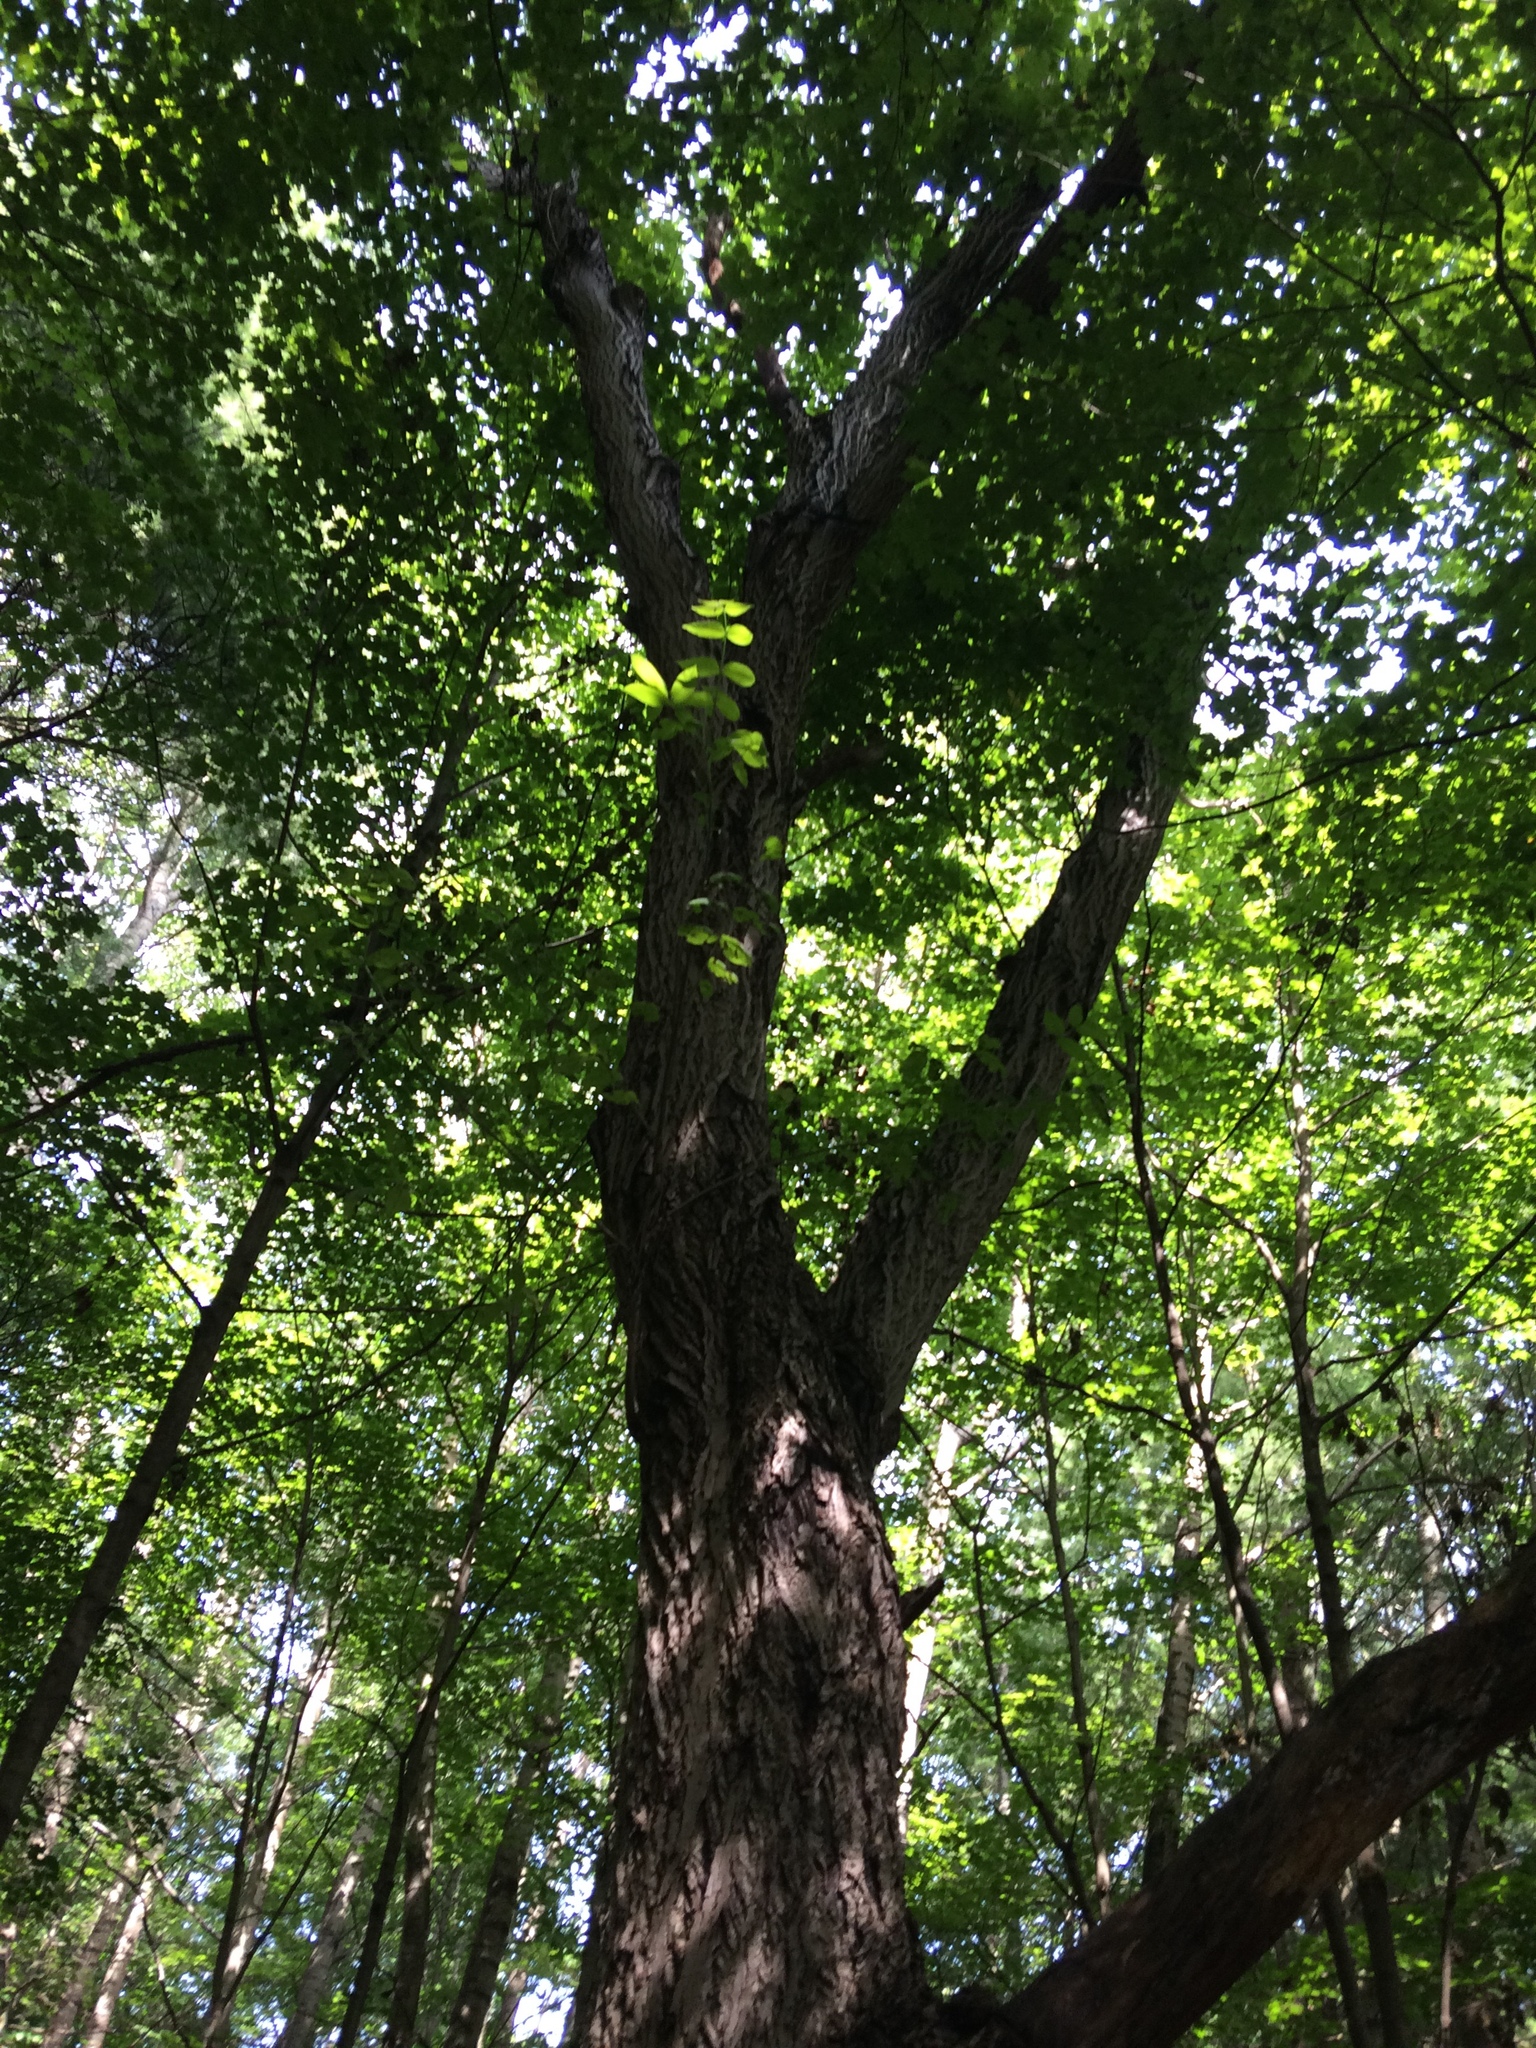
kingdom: Plantae
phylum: Tracheophyta
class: Magnoliopsida
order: Fagales
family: Juglandaceae
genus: Juglans
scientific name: Juglans cinerea
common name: Butternut
